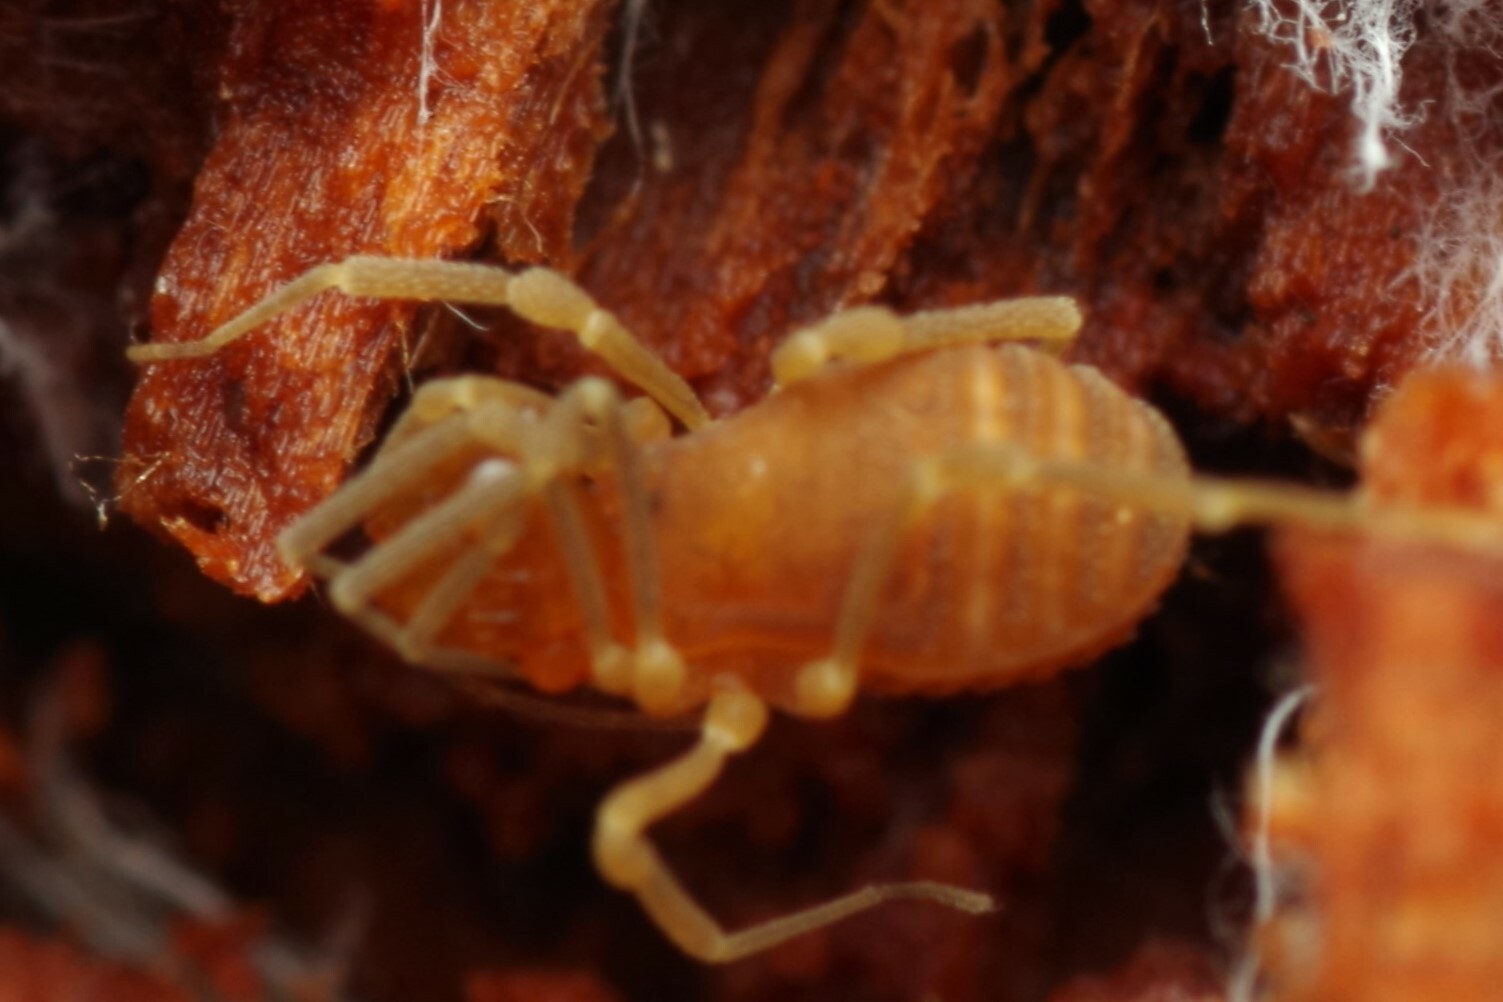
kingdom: Animalia
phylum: Arthropoda
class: Arachnida
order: Opiliones
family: Cladonychiidae
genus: Holoscotolemon
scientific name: Holoscotolemon querilhaci
